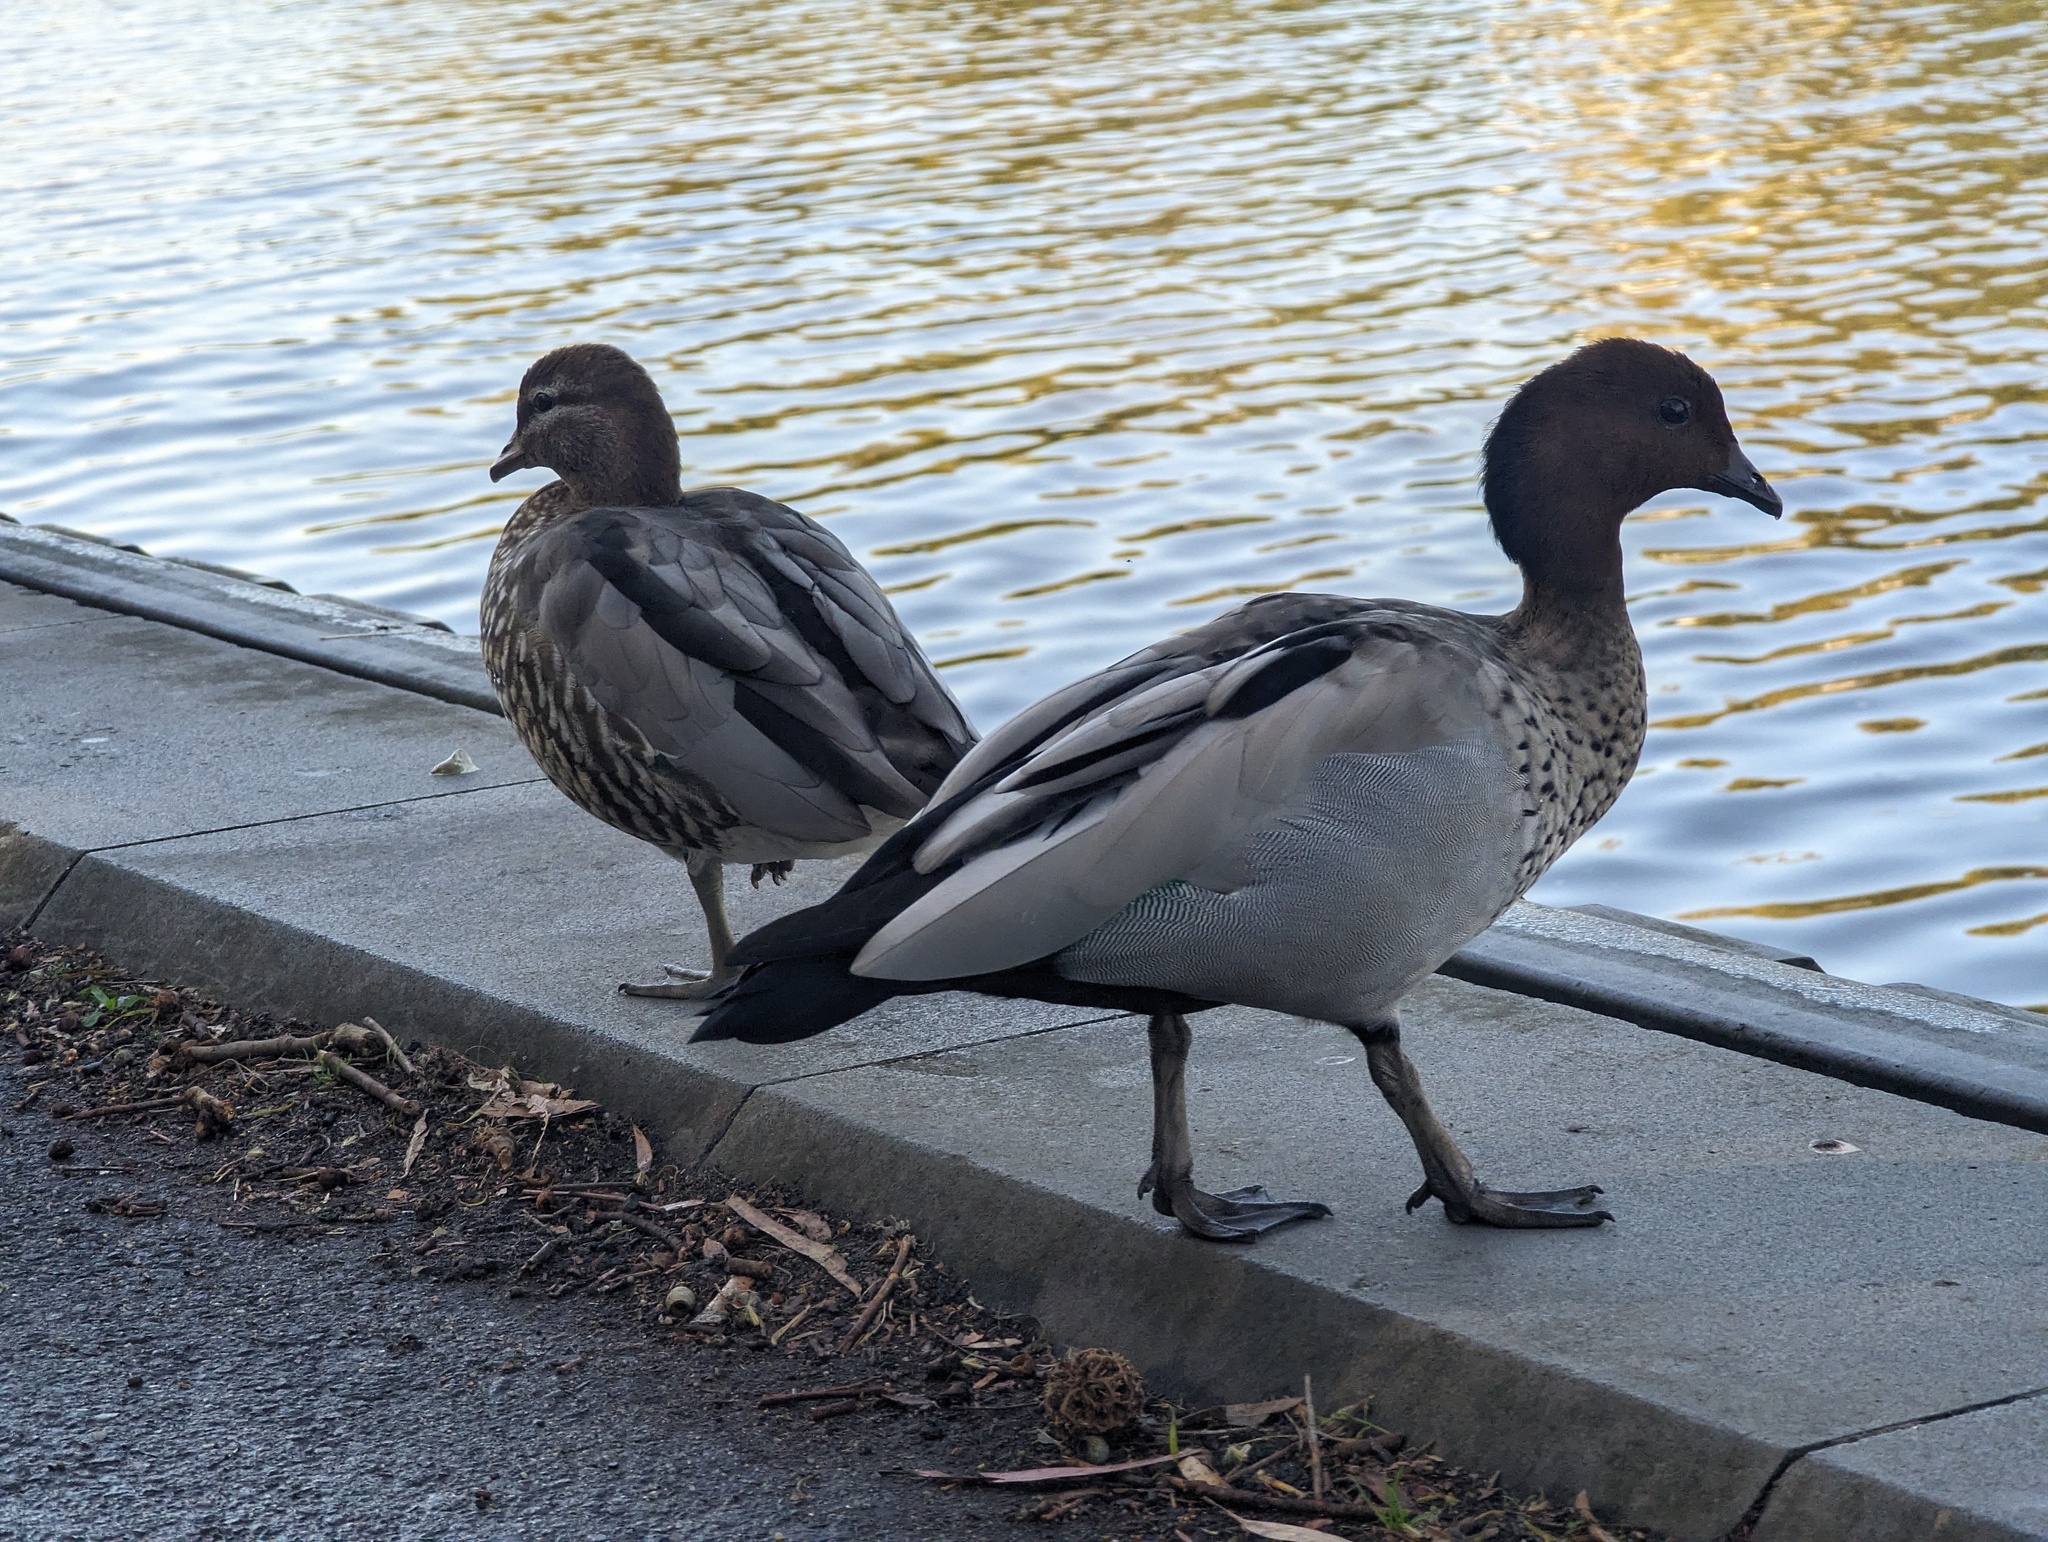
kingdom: Animalia
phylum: Chordata
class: Aves
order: Anseriformes
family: Anatidae
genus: Chenonetta
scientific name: Chenonetta jubata
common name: Maned duck
